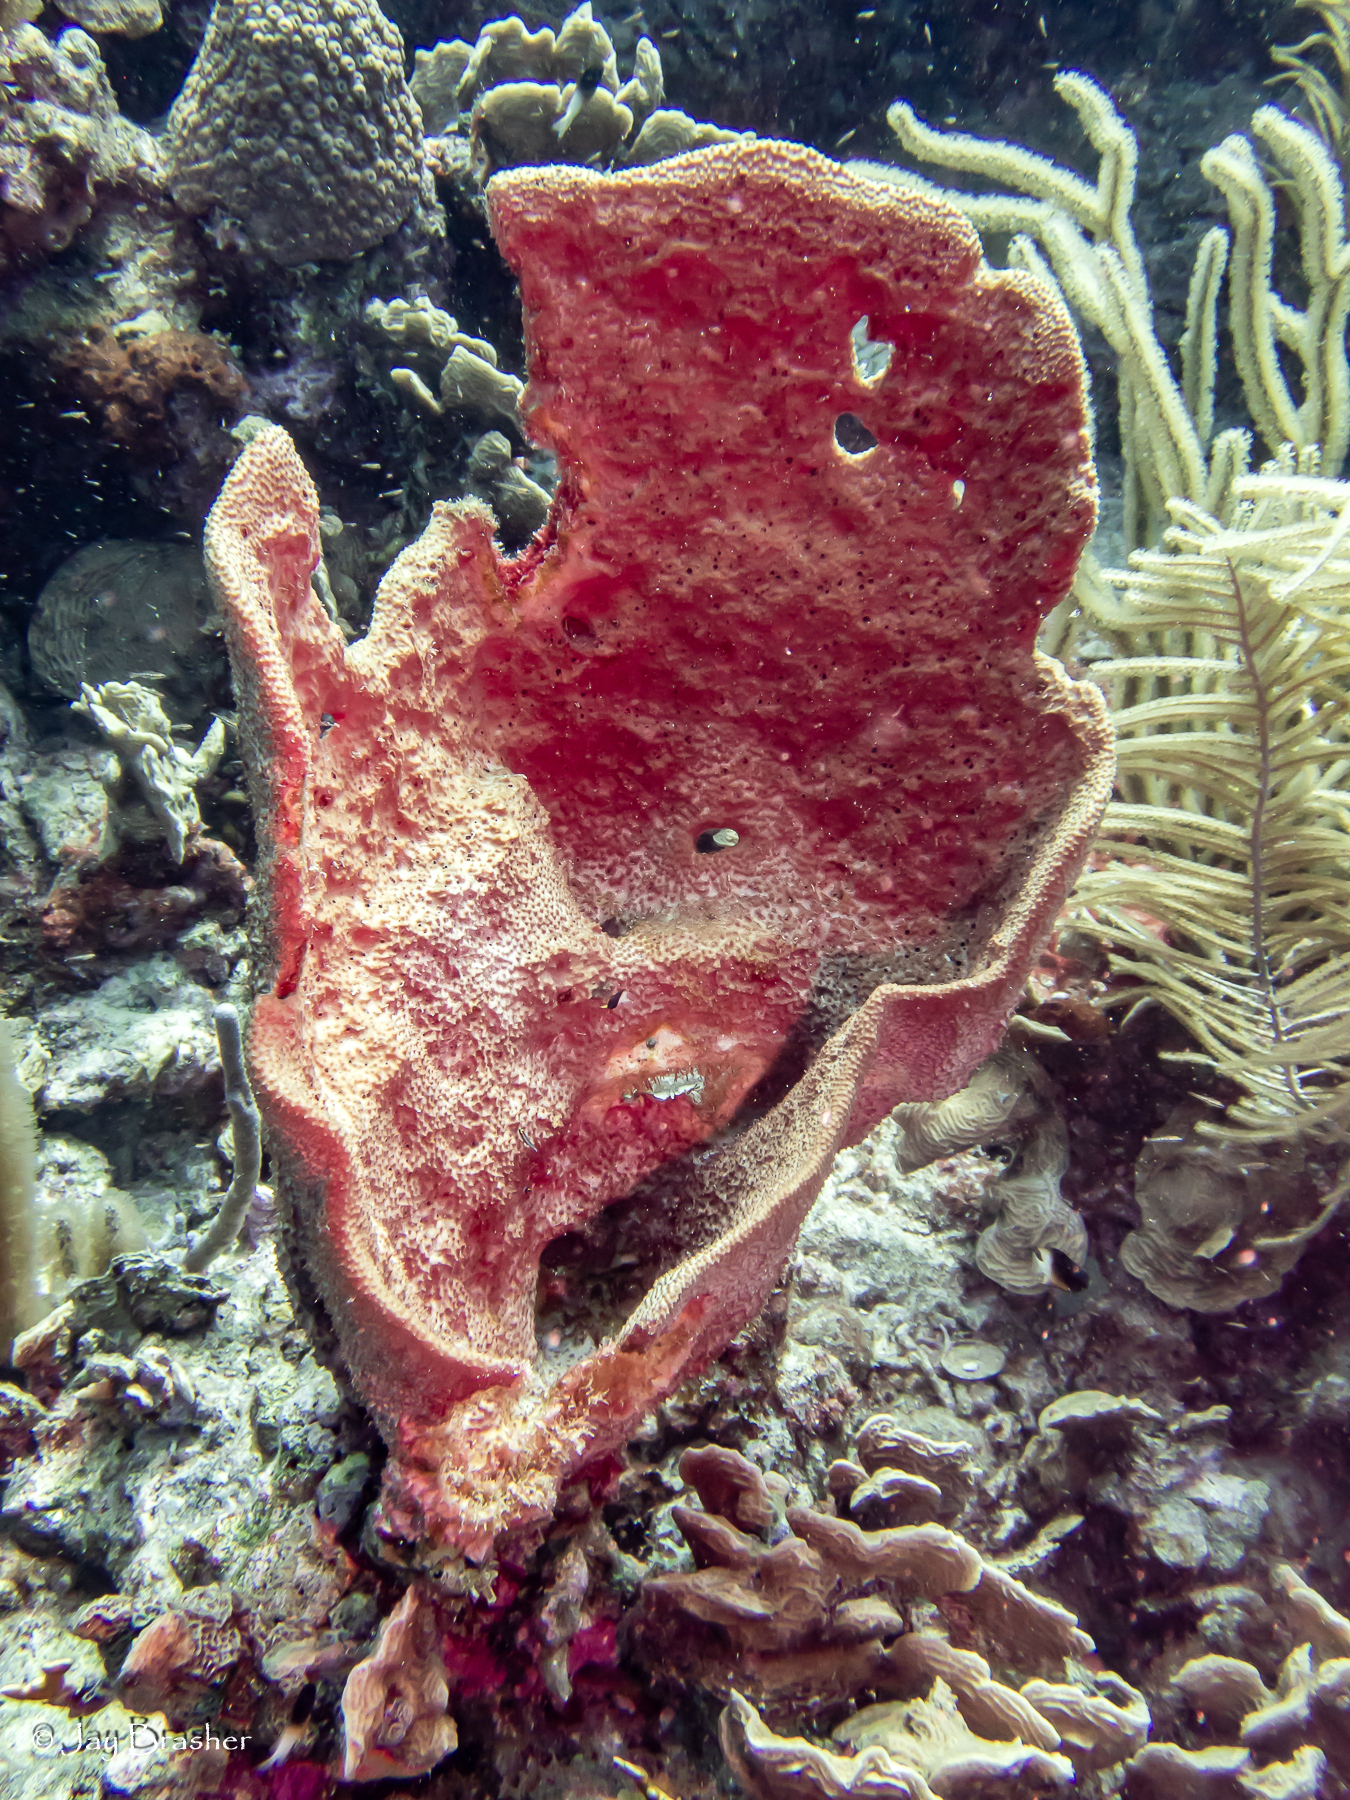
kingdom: Animalia
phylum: Porifera
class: Demospongiae
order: Dictyoceratida
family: Irciniidae
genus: Ircinia
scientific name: Ircinia campana
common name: Vase sponge
